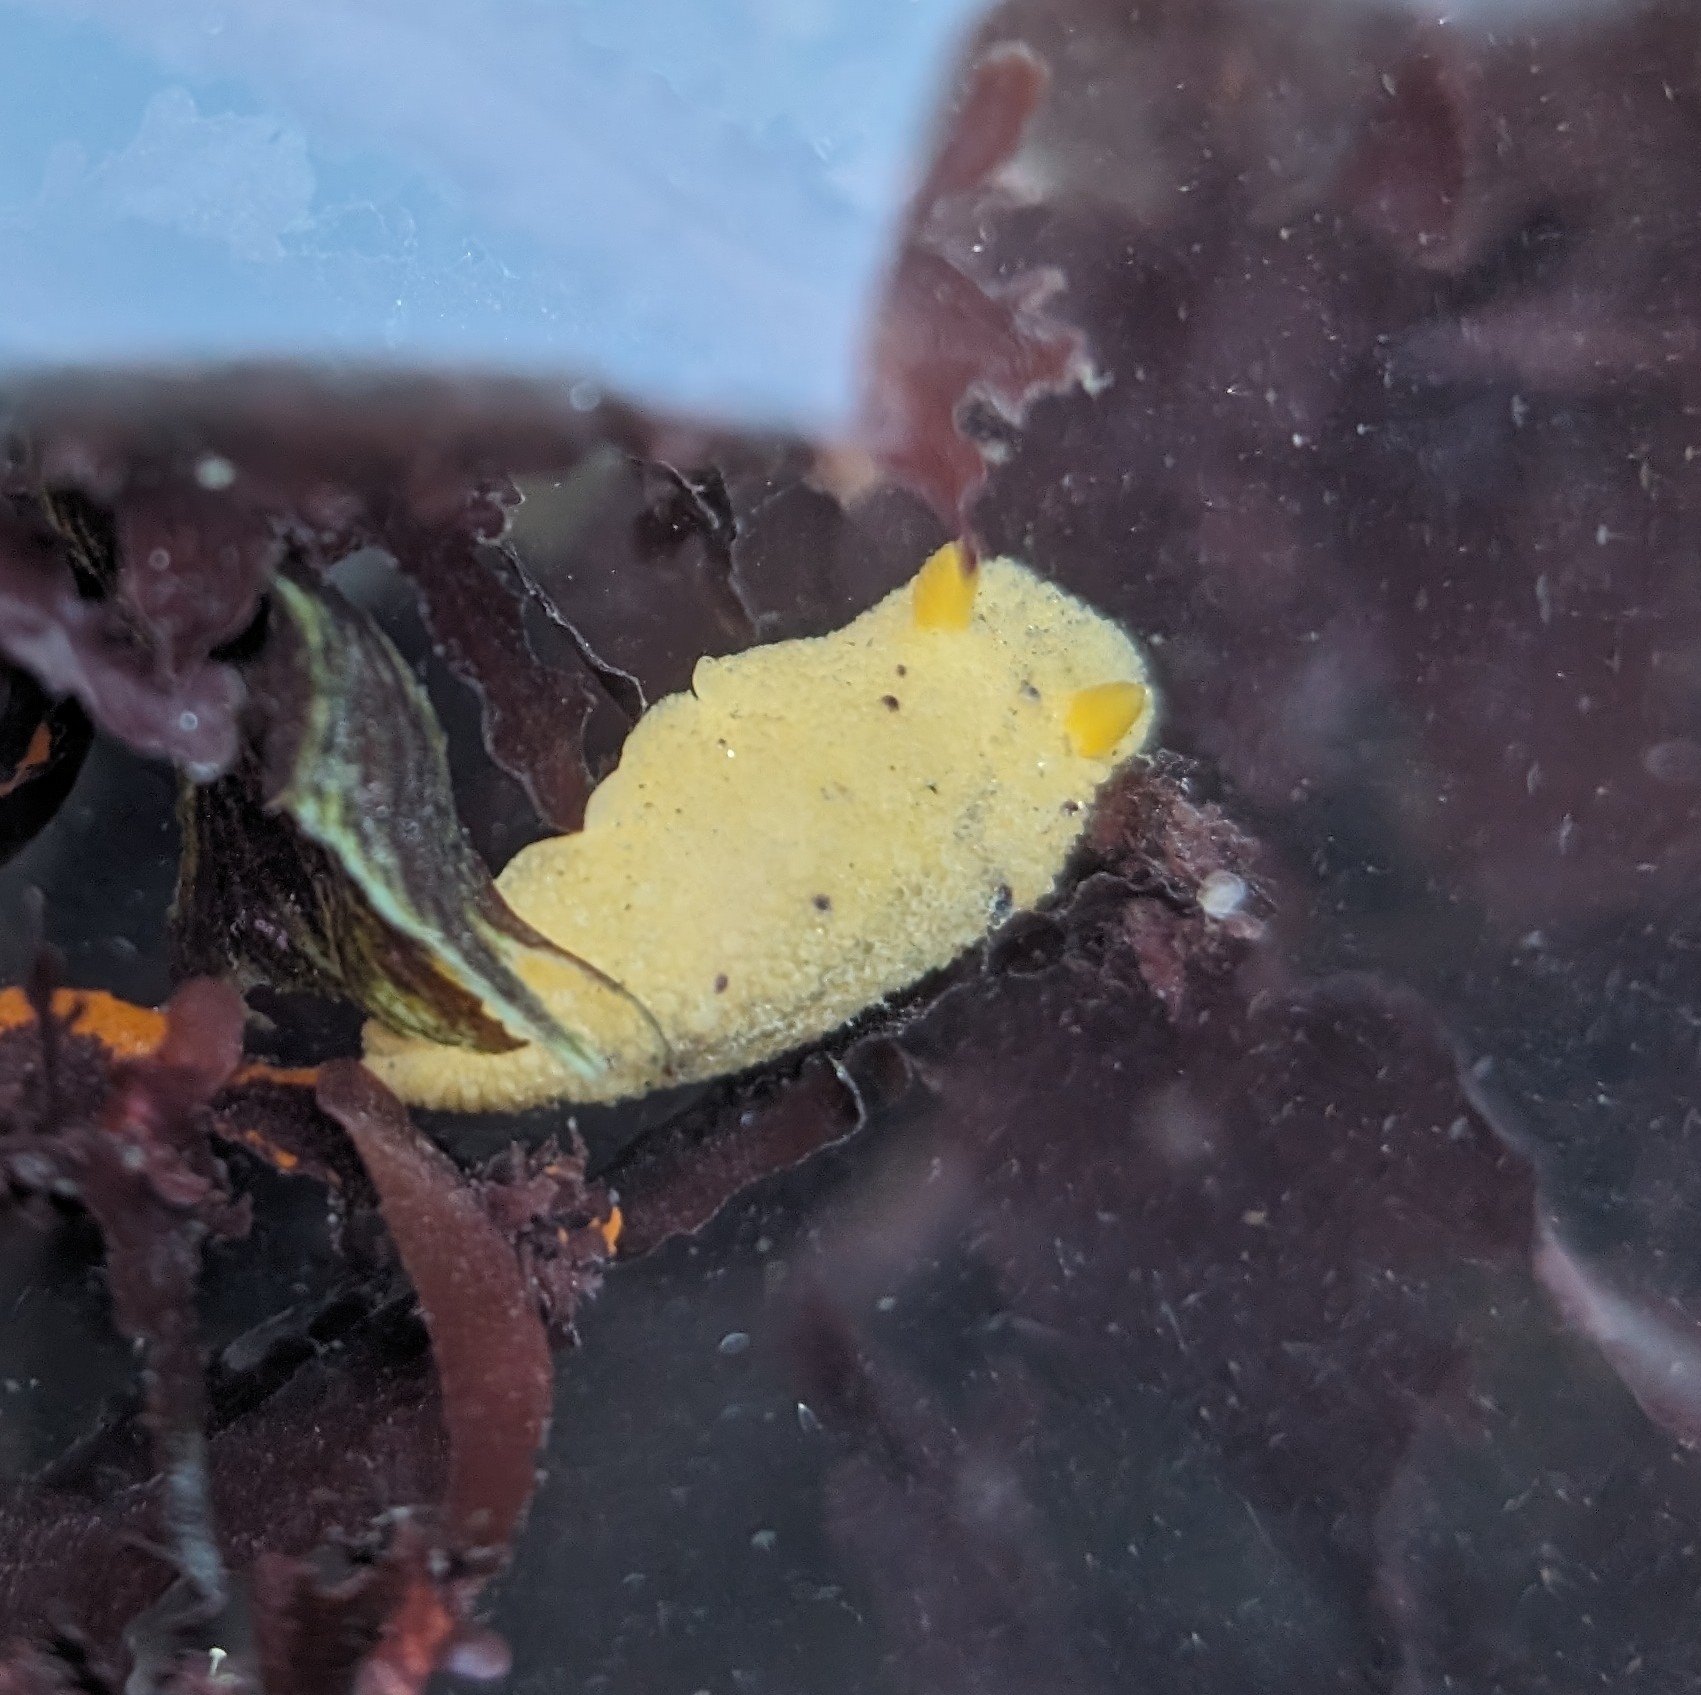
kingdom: Animalia
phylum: Mollusca
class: Gastropoda
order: Nudibranchia
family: Dorididae
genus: Doris
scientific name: Doris montereyensis
